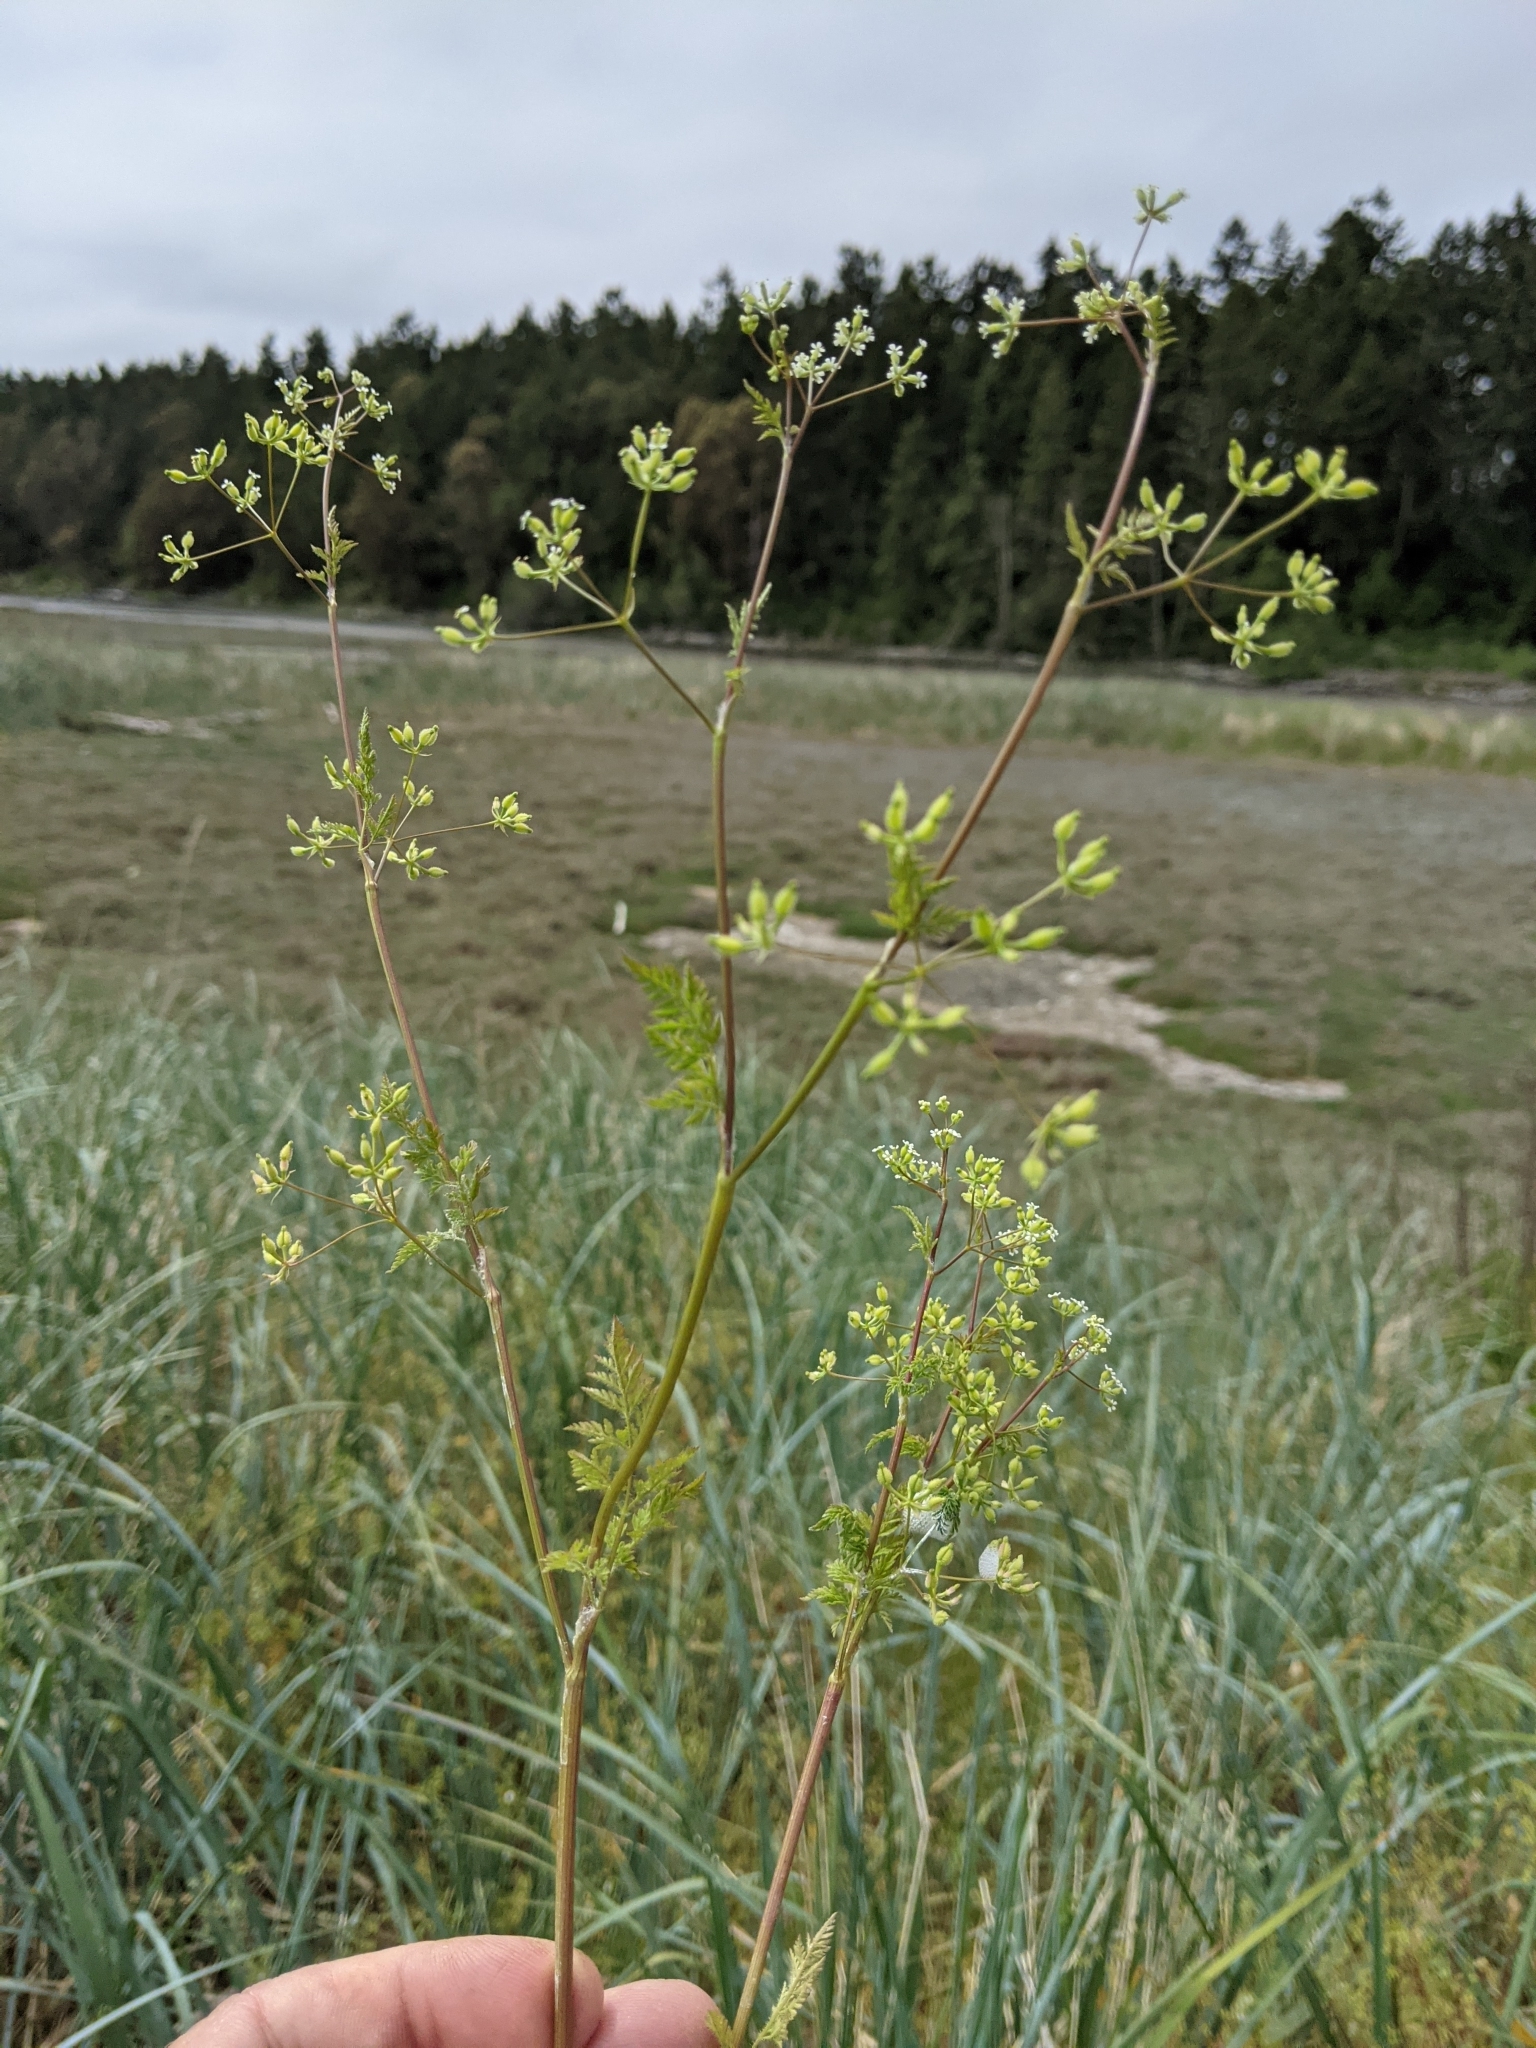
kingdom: Plantae
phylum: Tracheophyta
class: Magnoliopsida
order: Apiales
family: Apiaceae
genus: Anthriscus
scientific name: Anthriscus caucalis
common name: Bur chervil
